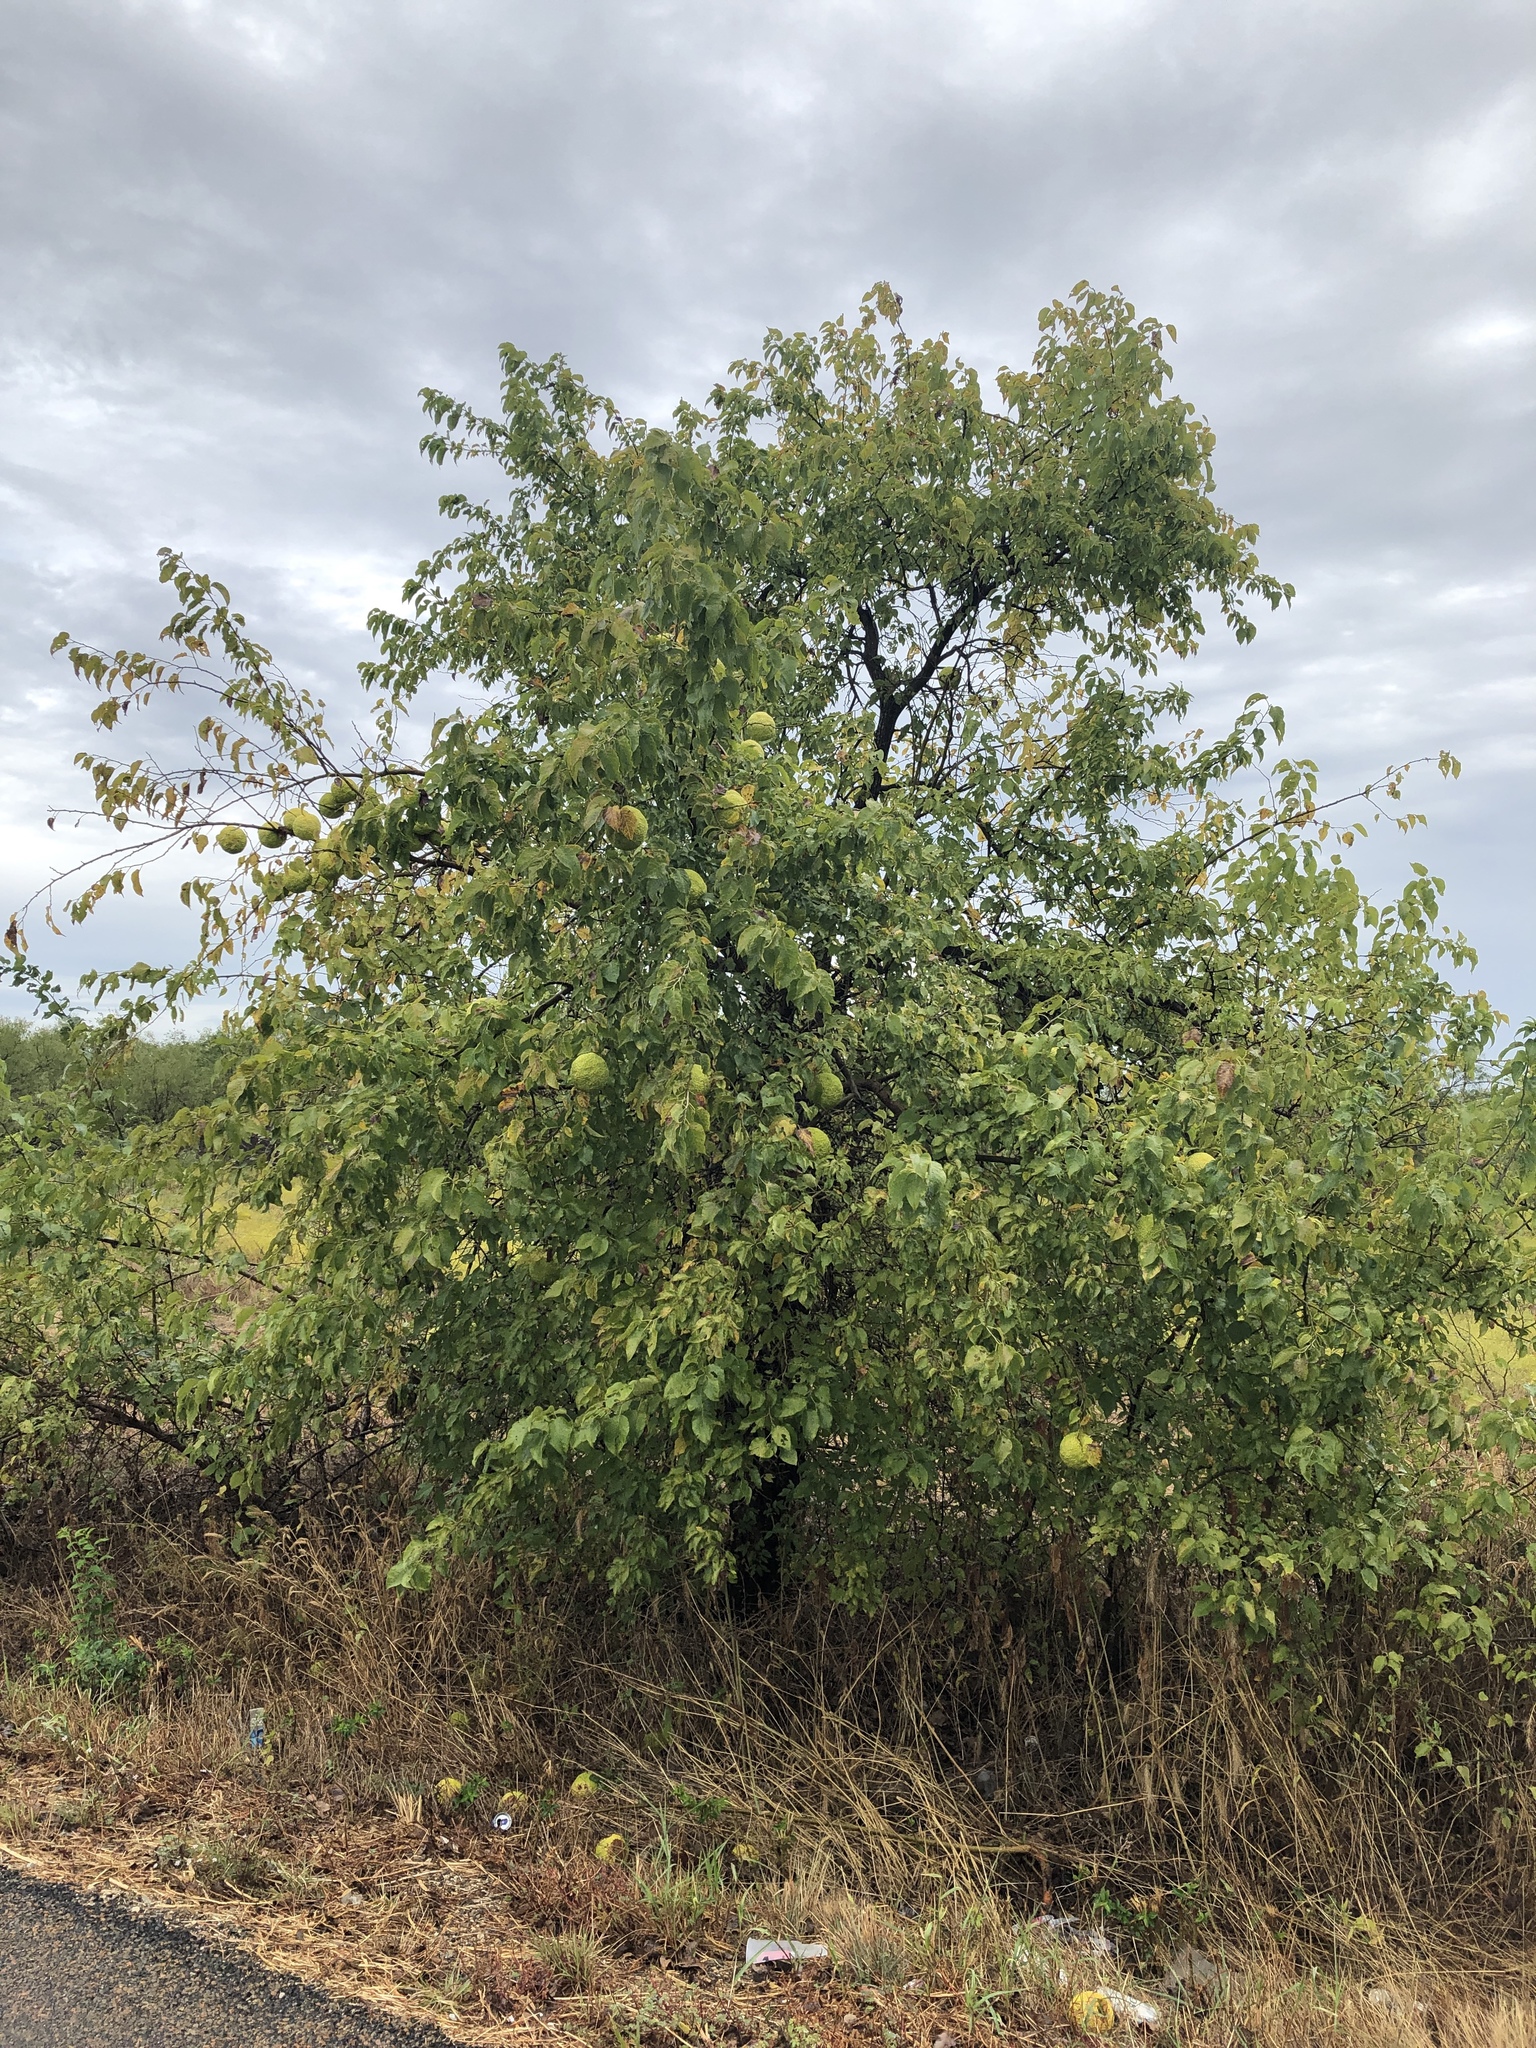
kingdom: Plantae
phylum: Tracheophyta
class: Magnoliopsida
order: Rosales
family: Moraceae
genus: Maclura
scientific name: Maclura pomifera
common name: Osage-orange
